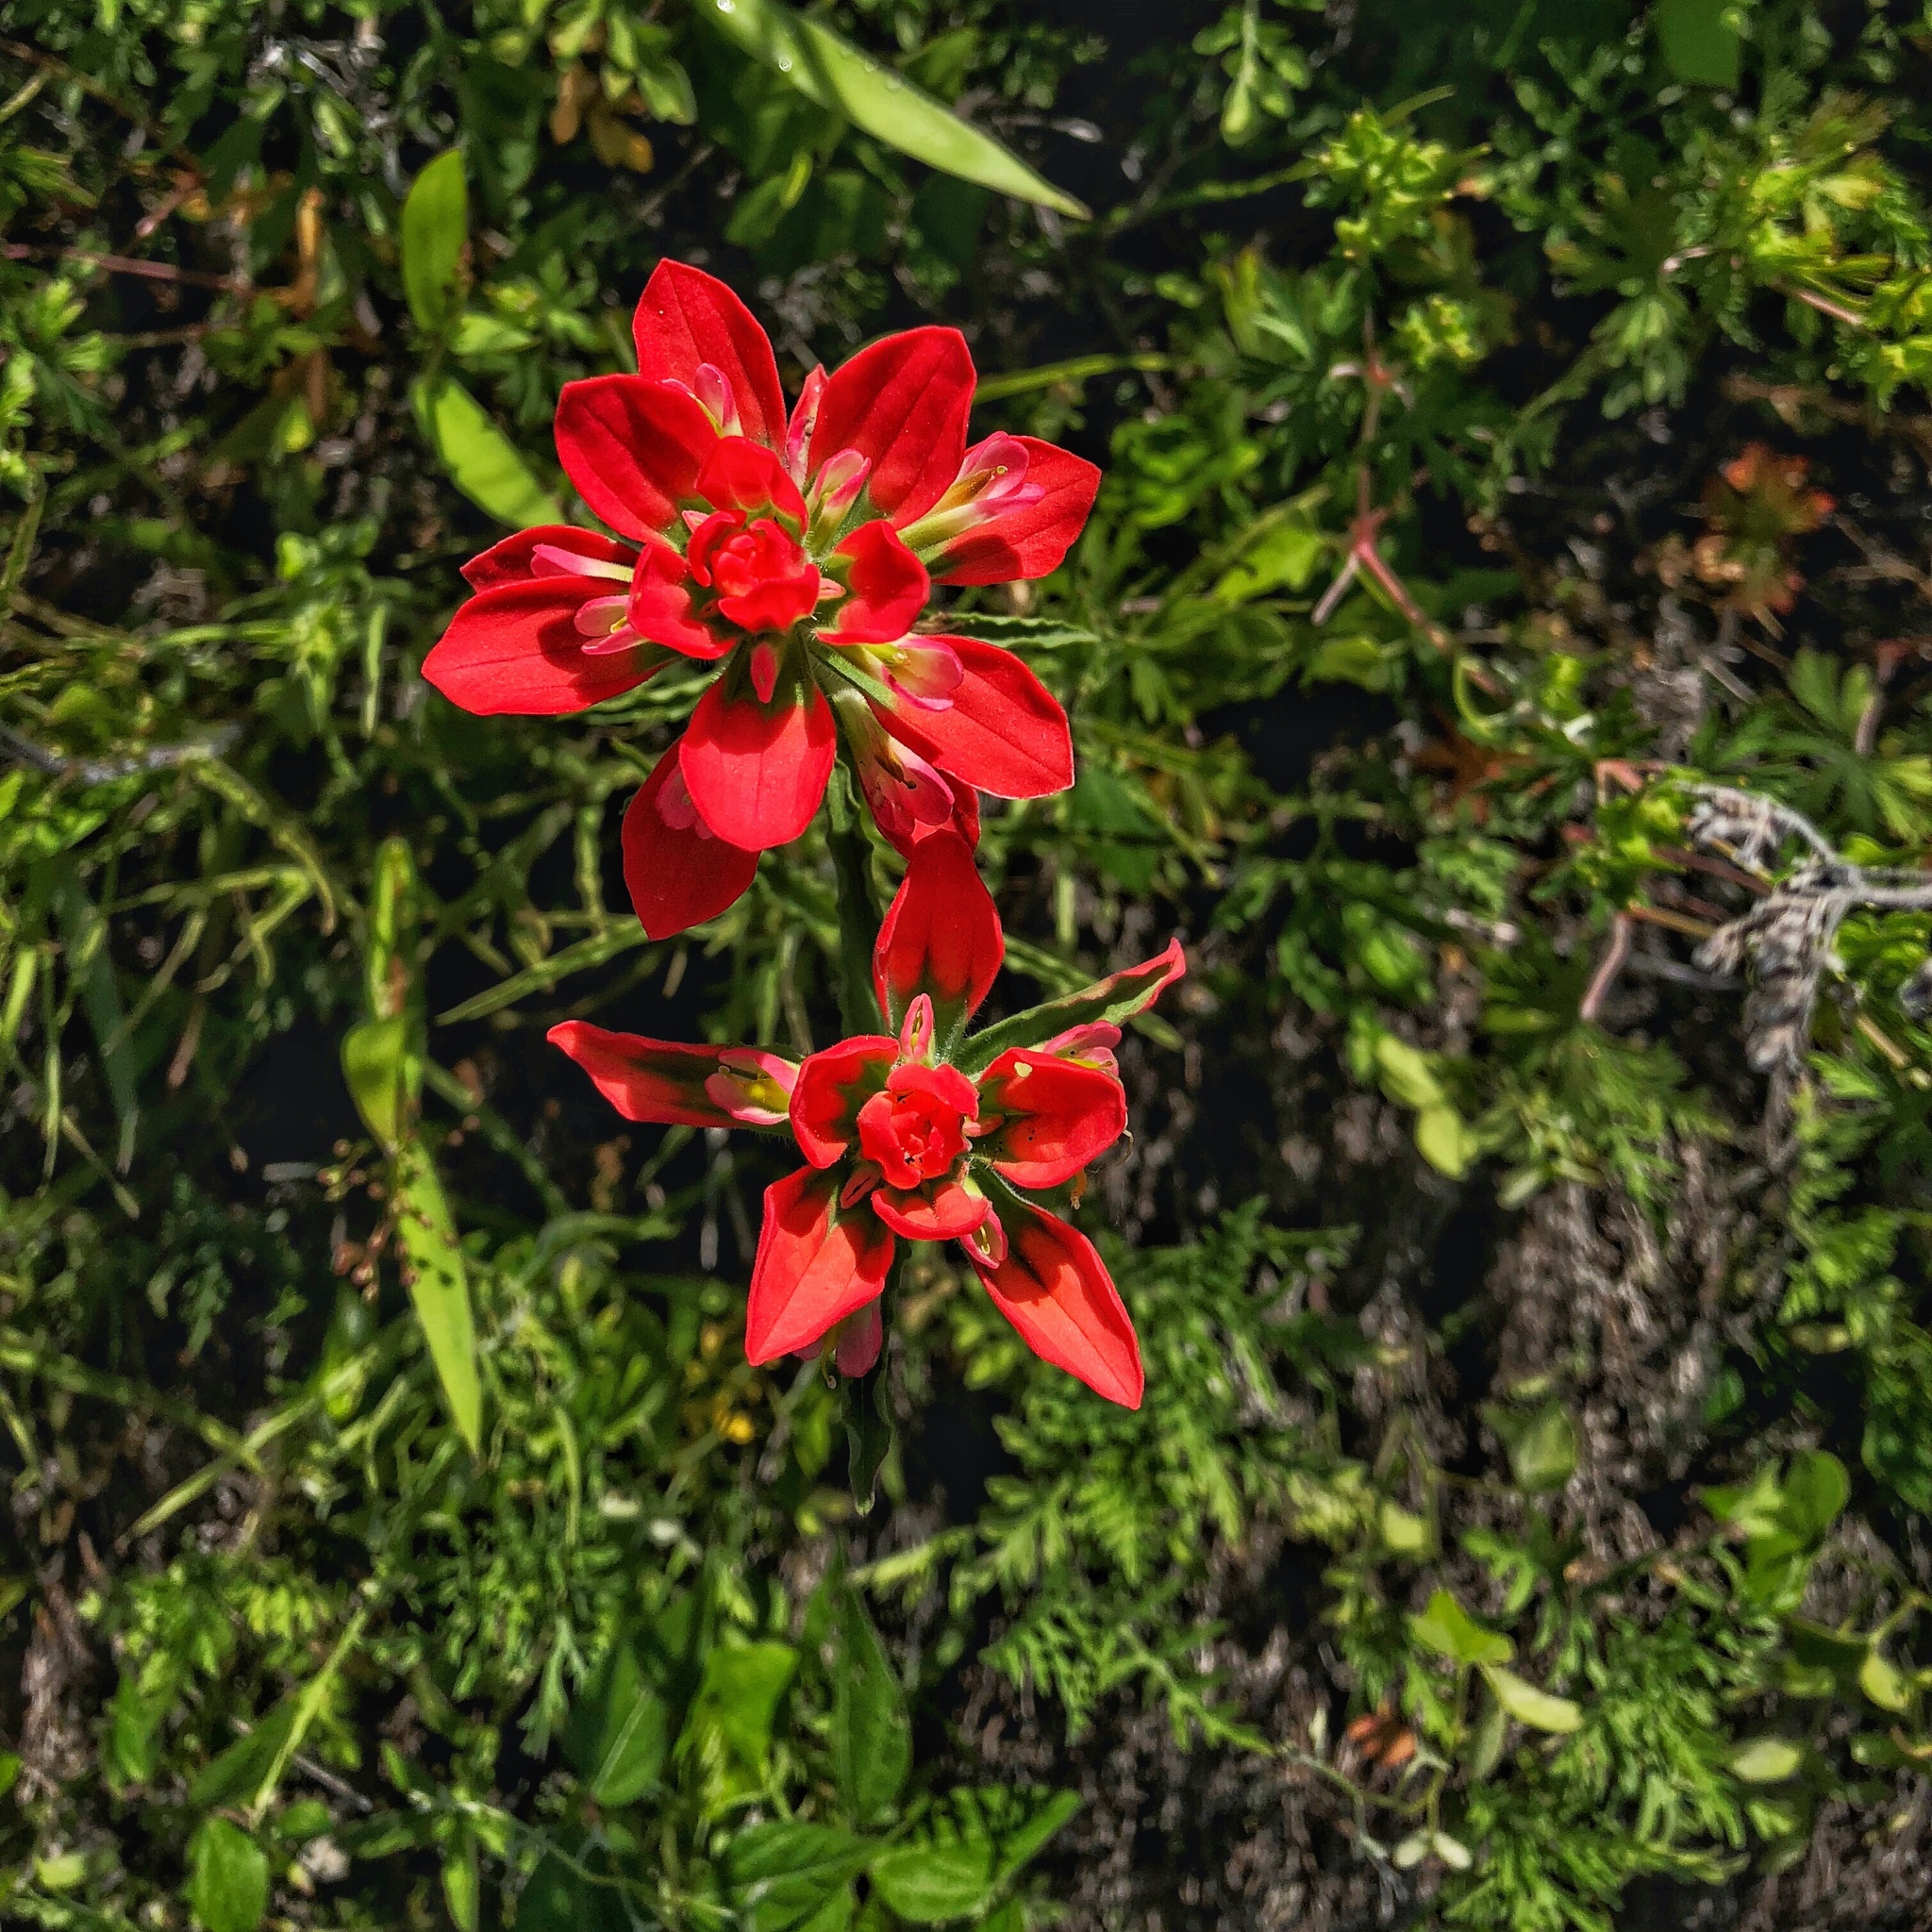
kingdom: Plantae
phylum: Tracheophyta
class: Magnoliopsida
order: Lamiales
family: Orobanchaceae
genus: Castilleja
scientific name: Castilleja indivisa
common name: Texas paintbrush
